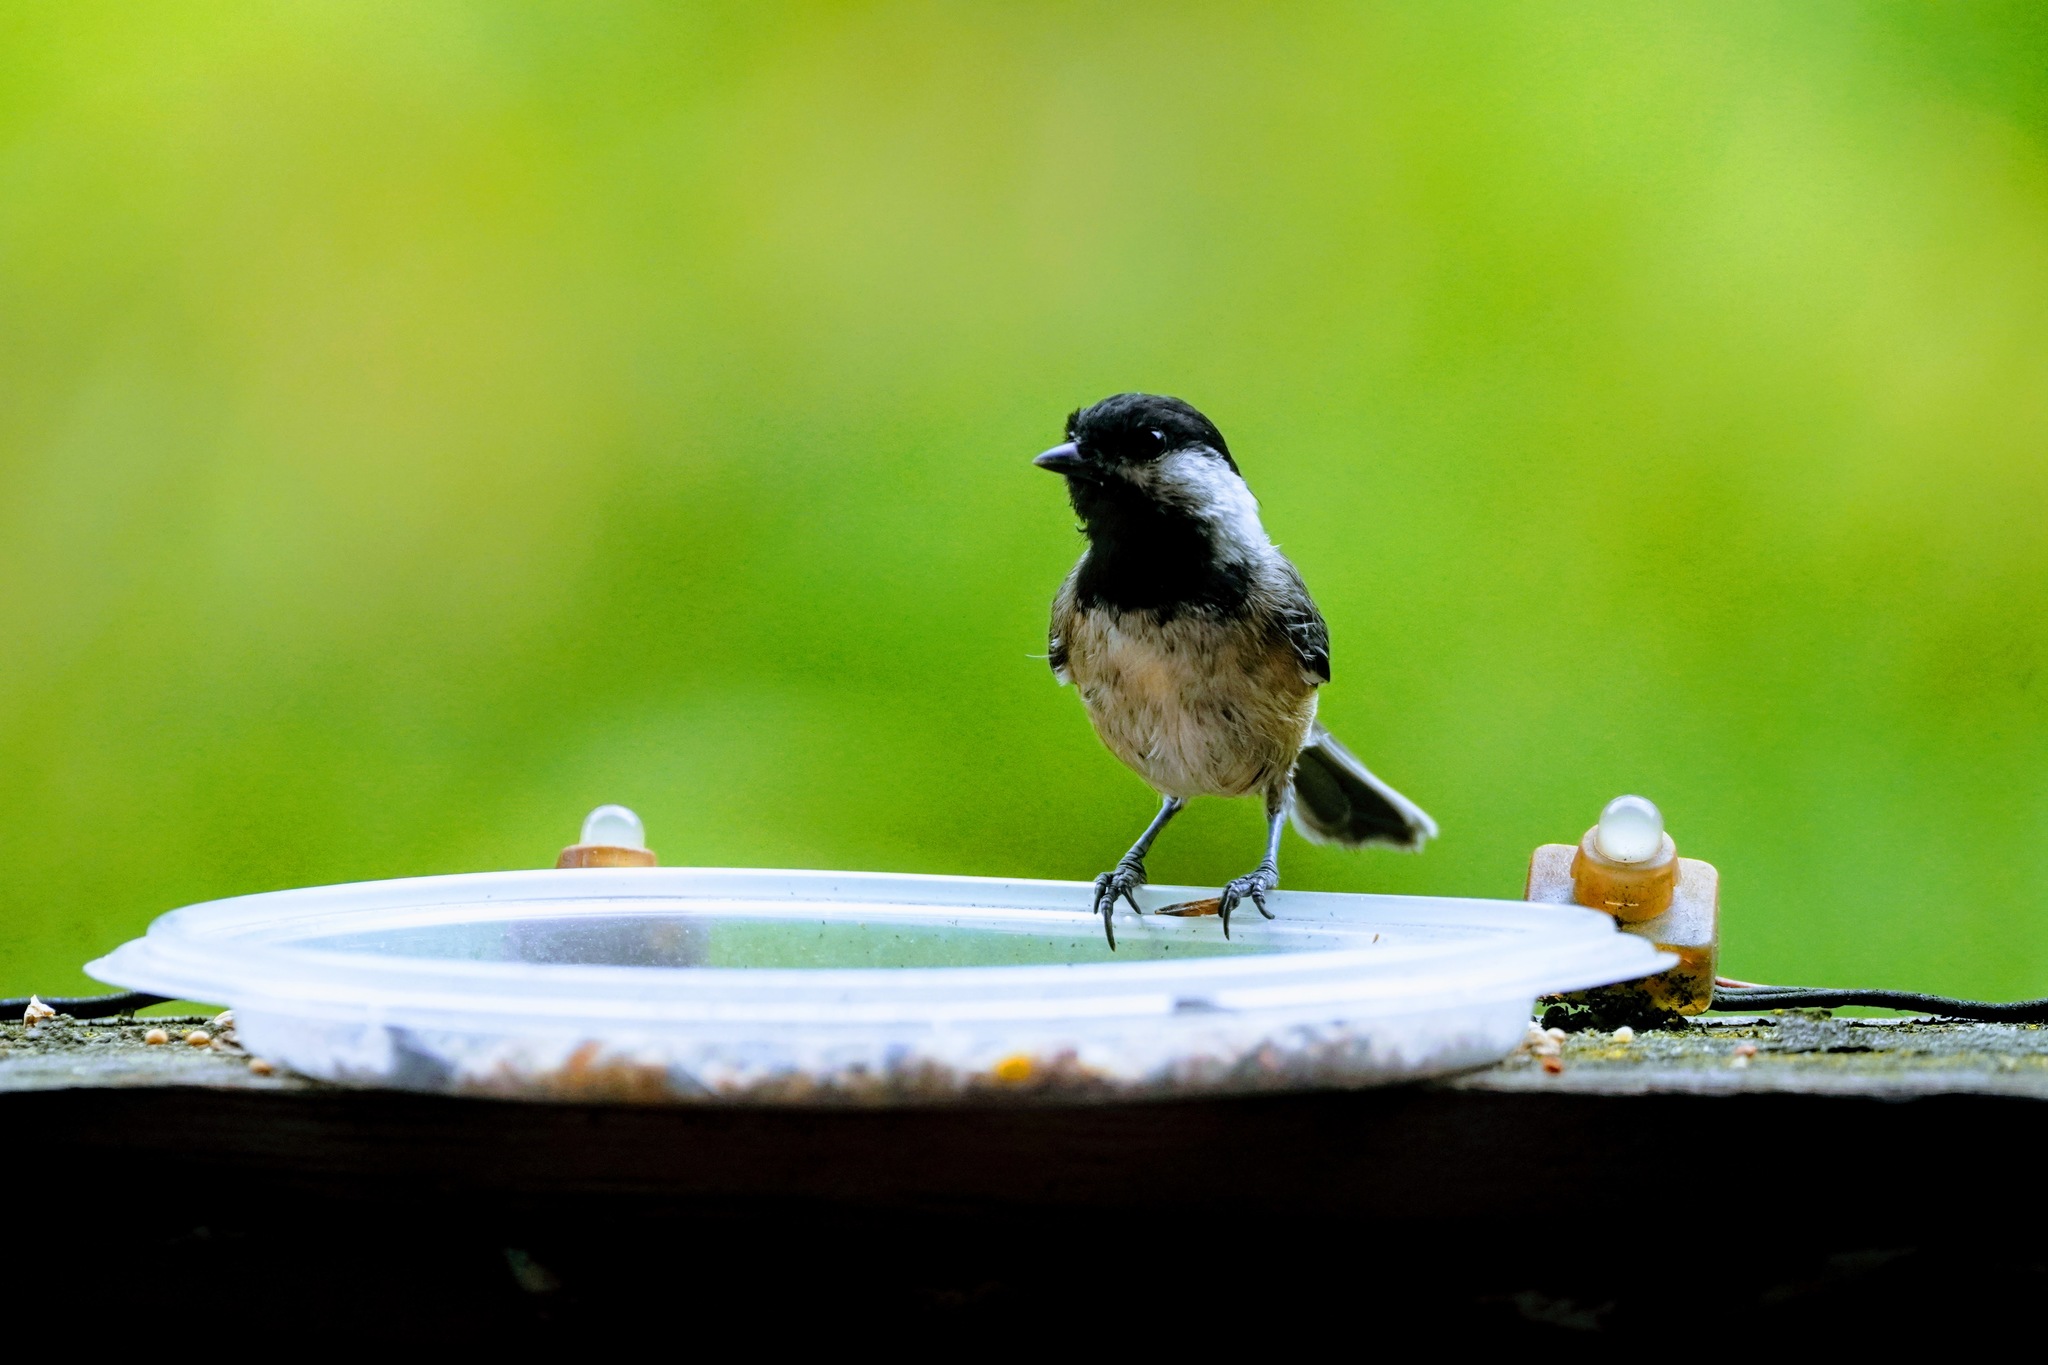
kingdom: Animalia
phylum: Chordata
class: Aves
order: Passeriformes
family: Paridae
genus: Poecile
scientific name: Poecile atricapillus
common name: Black-capped chickadee
